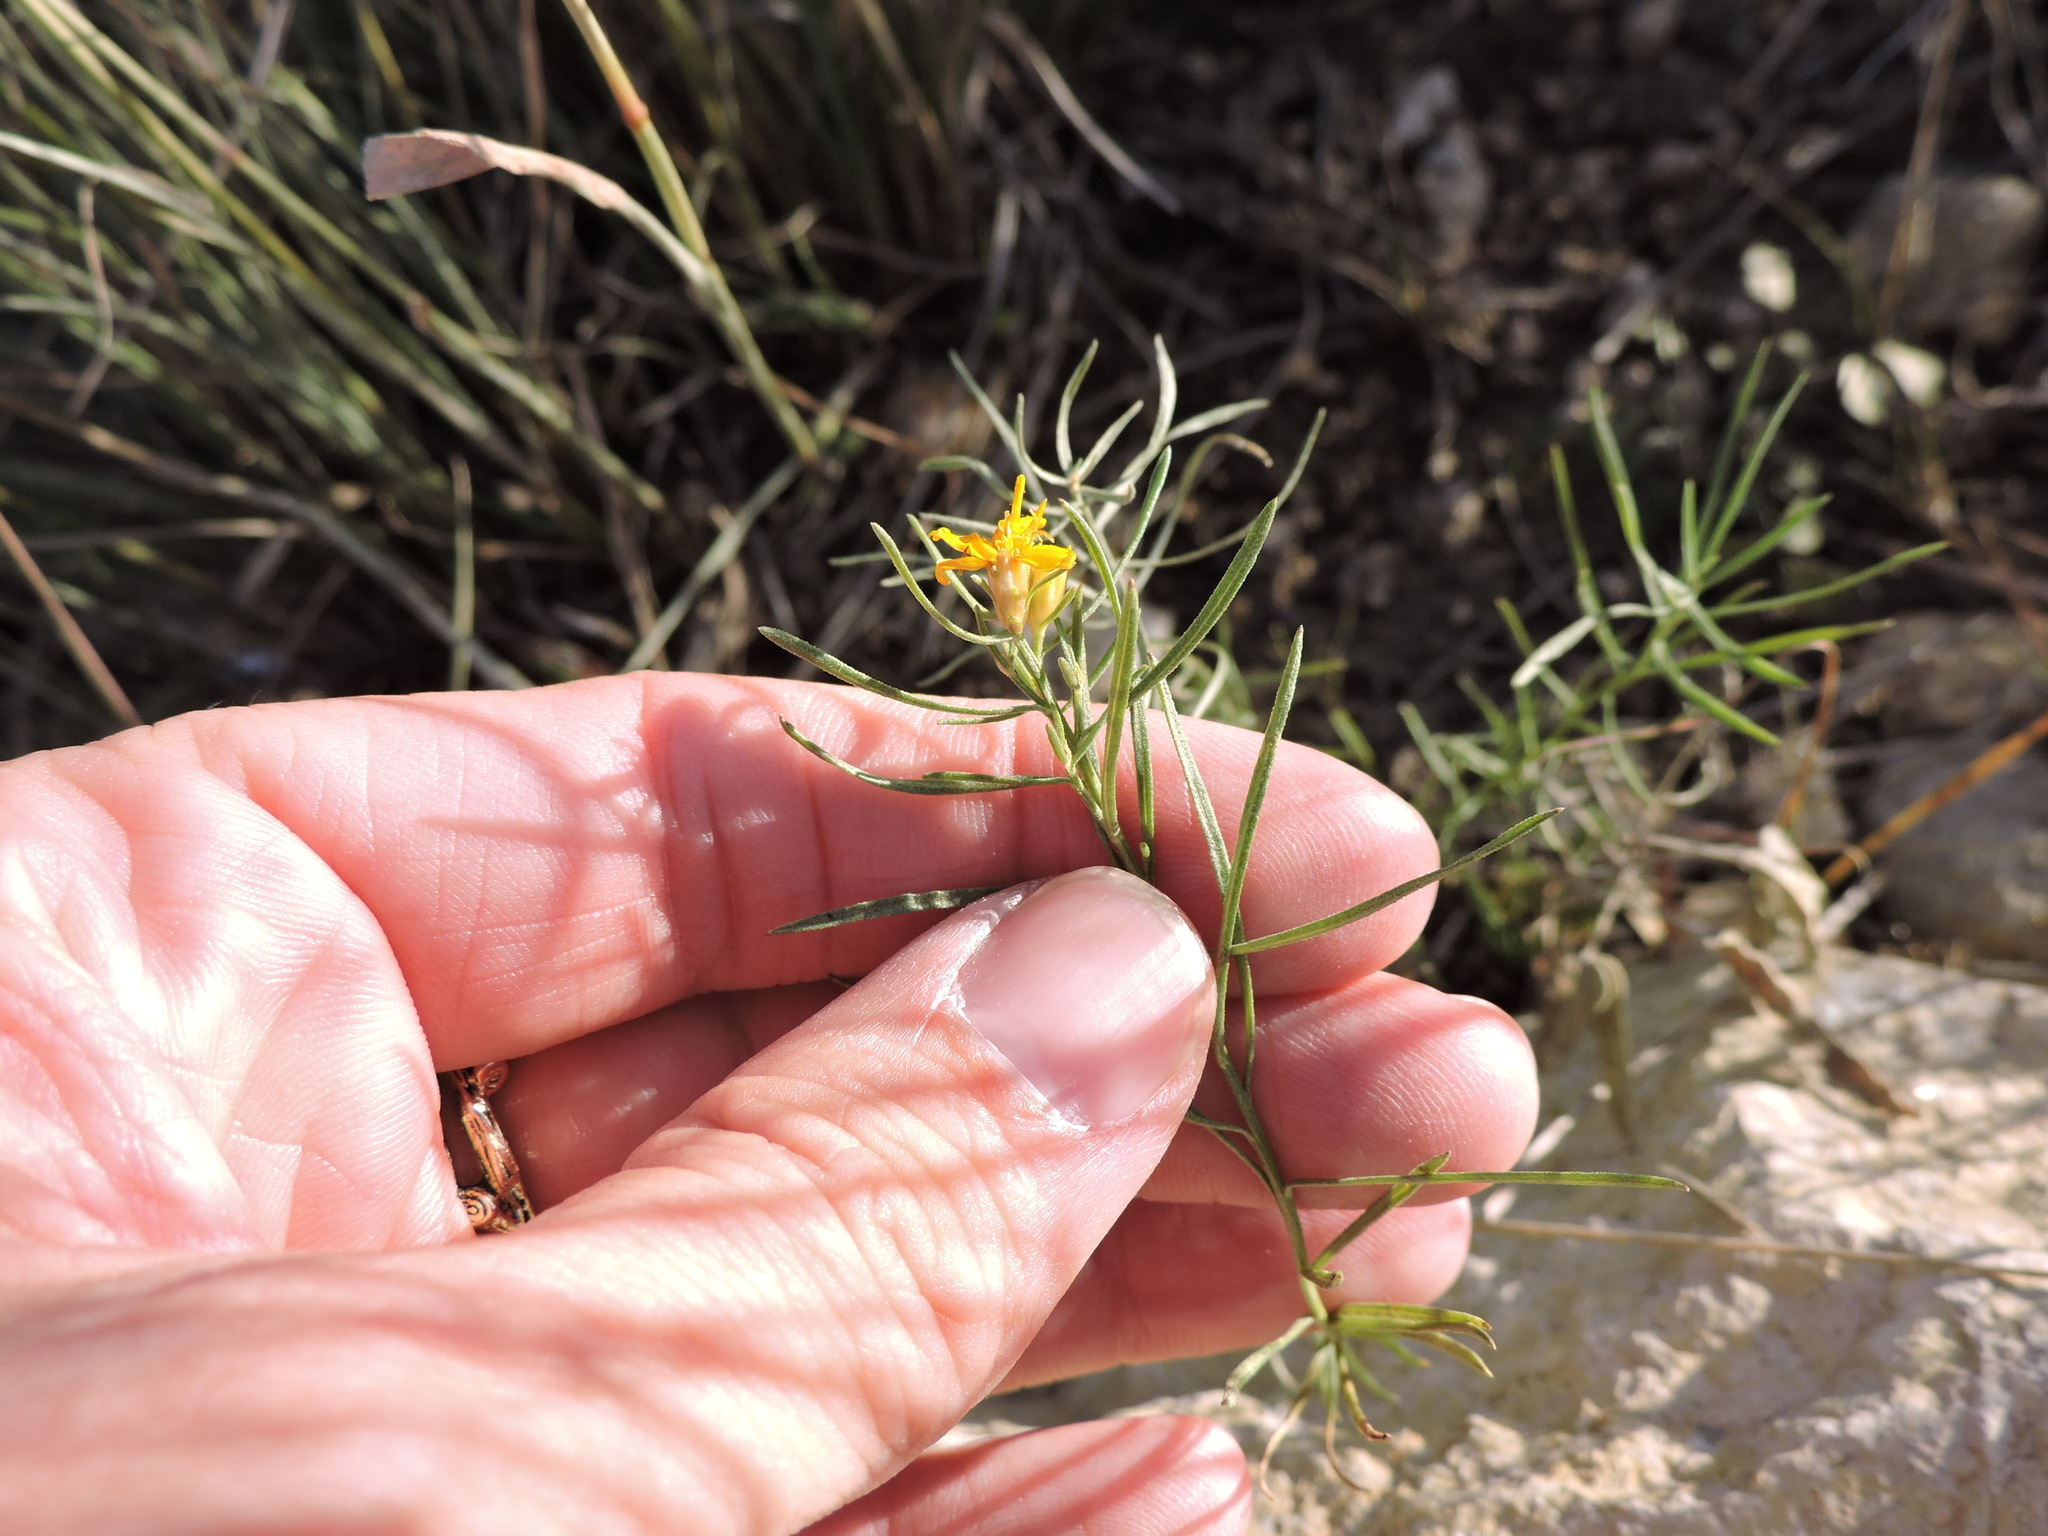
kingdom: Plantae
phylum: Tracheophyta
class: Magnoliopsida
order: Asterales
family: Asteraceae
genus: Pectis
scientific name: Pectis angustifolia
